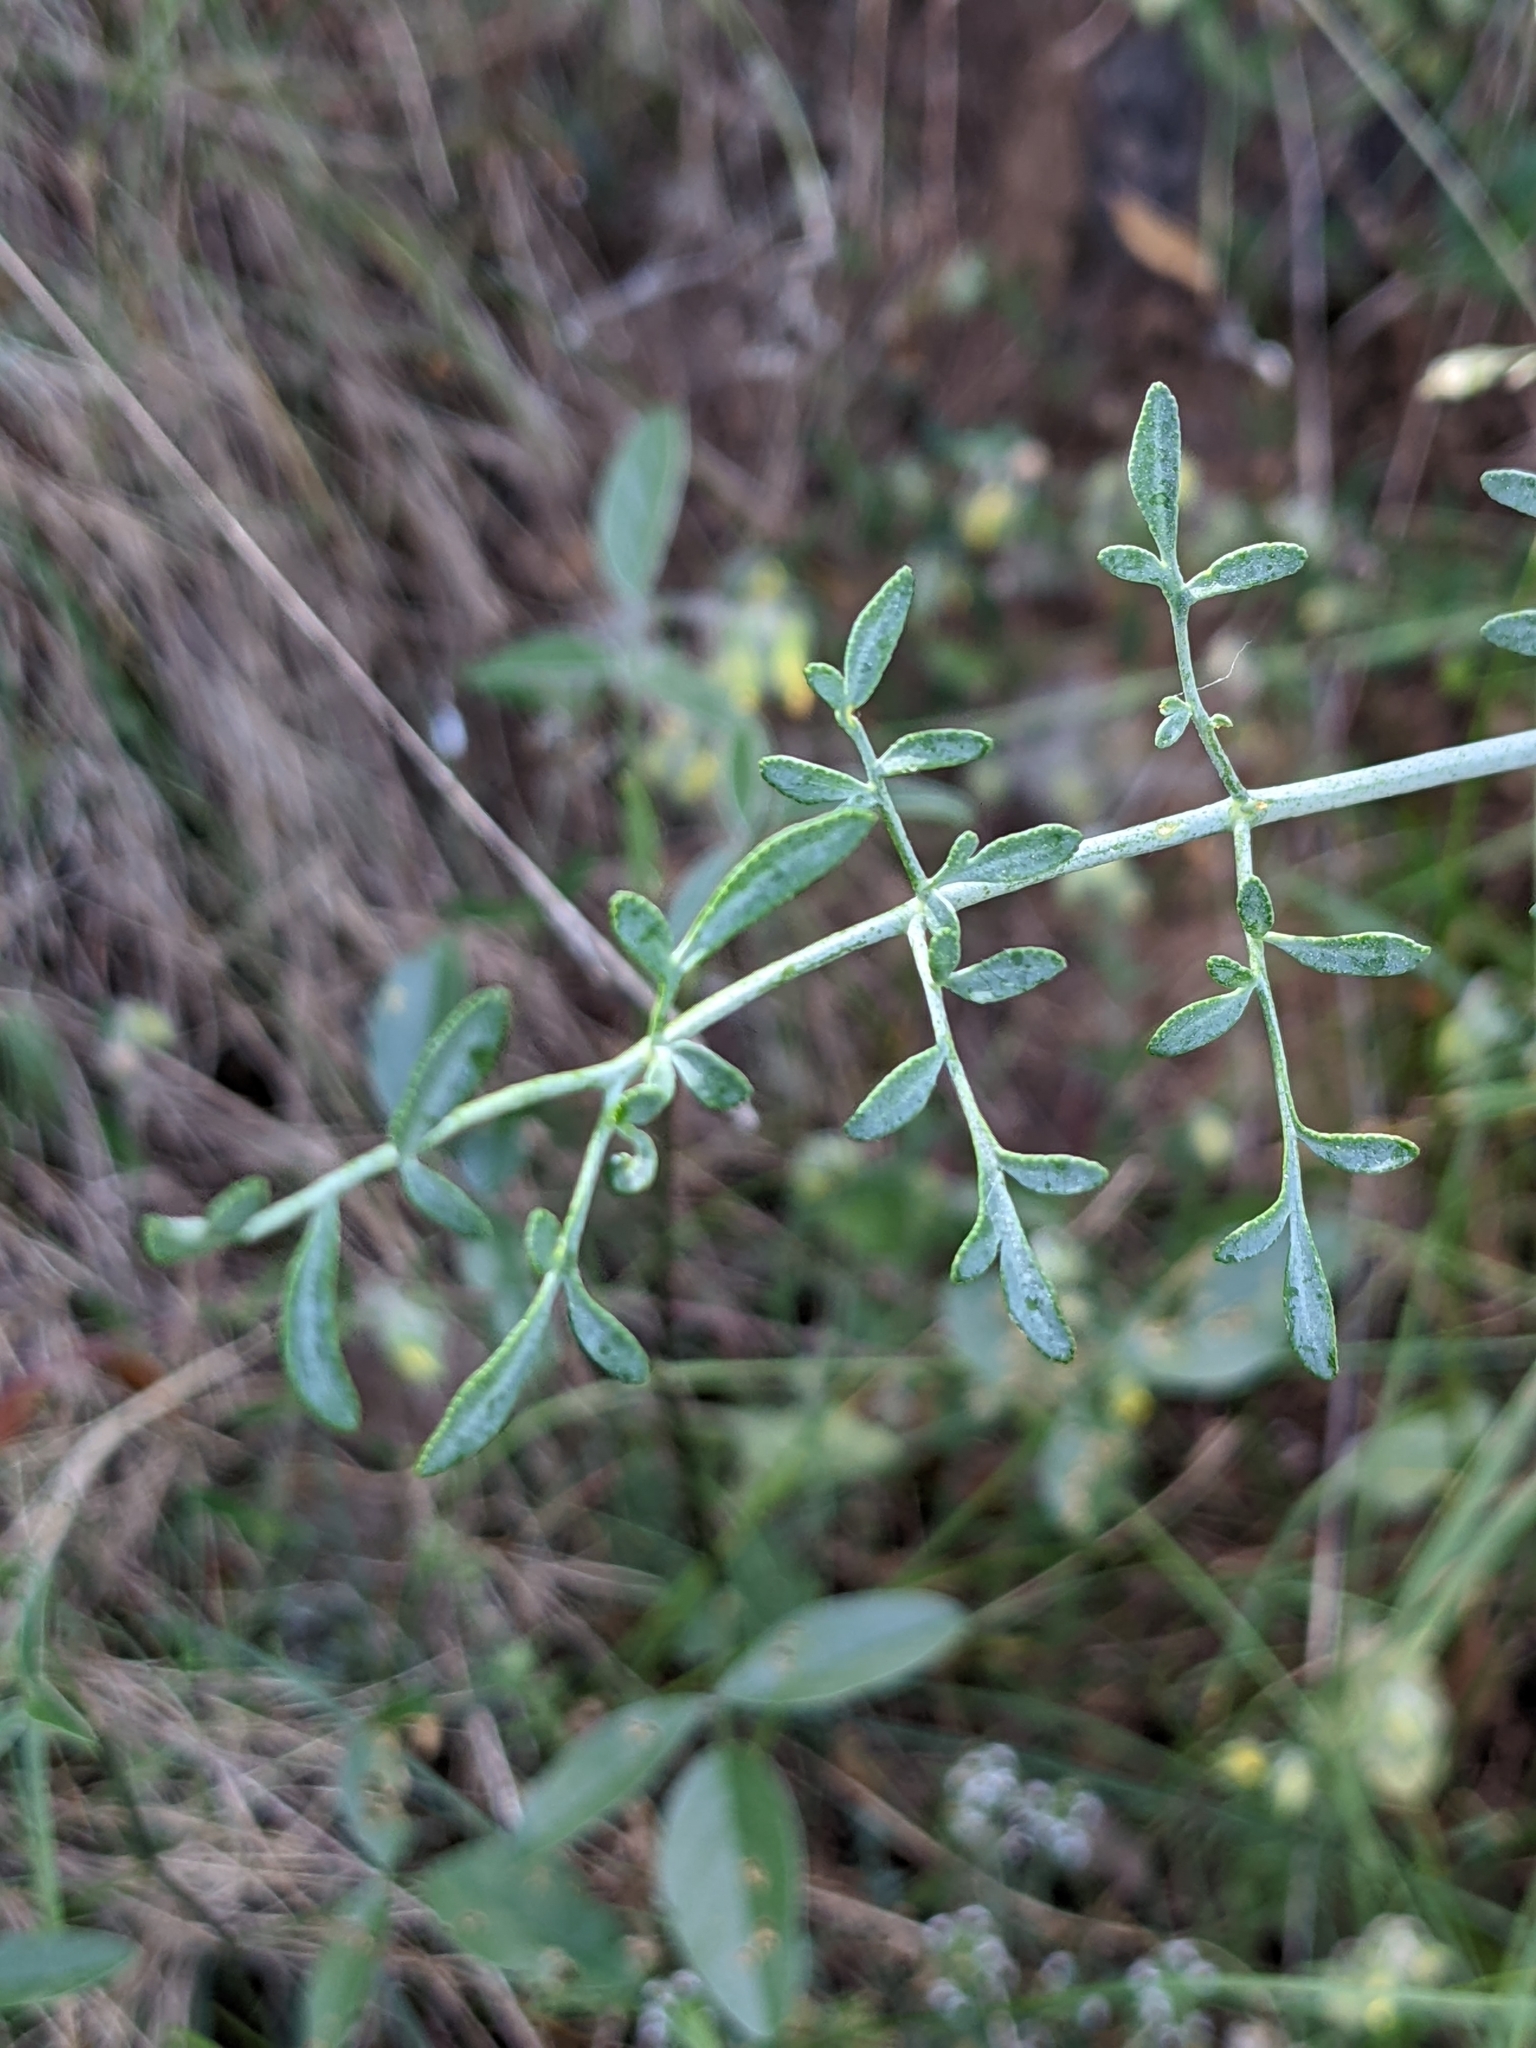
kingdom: Plantae
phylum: Tracheophyta
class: Magnoliopsida
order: Sapindales
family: Rutaceae
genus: Ruta
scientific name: Ruta angustifolia
